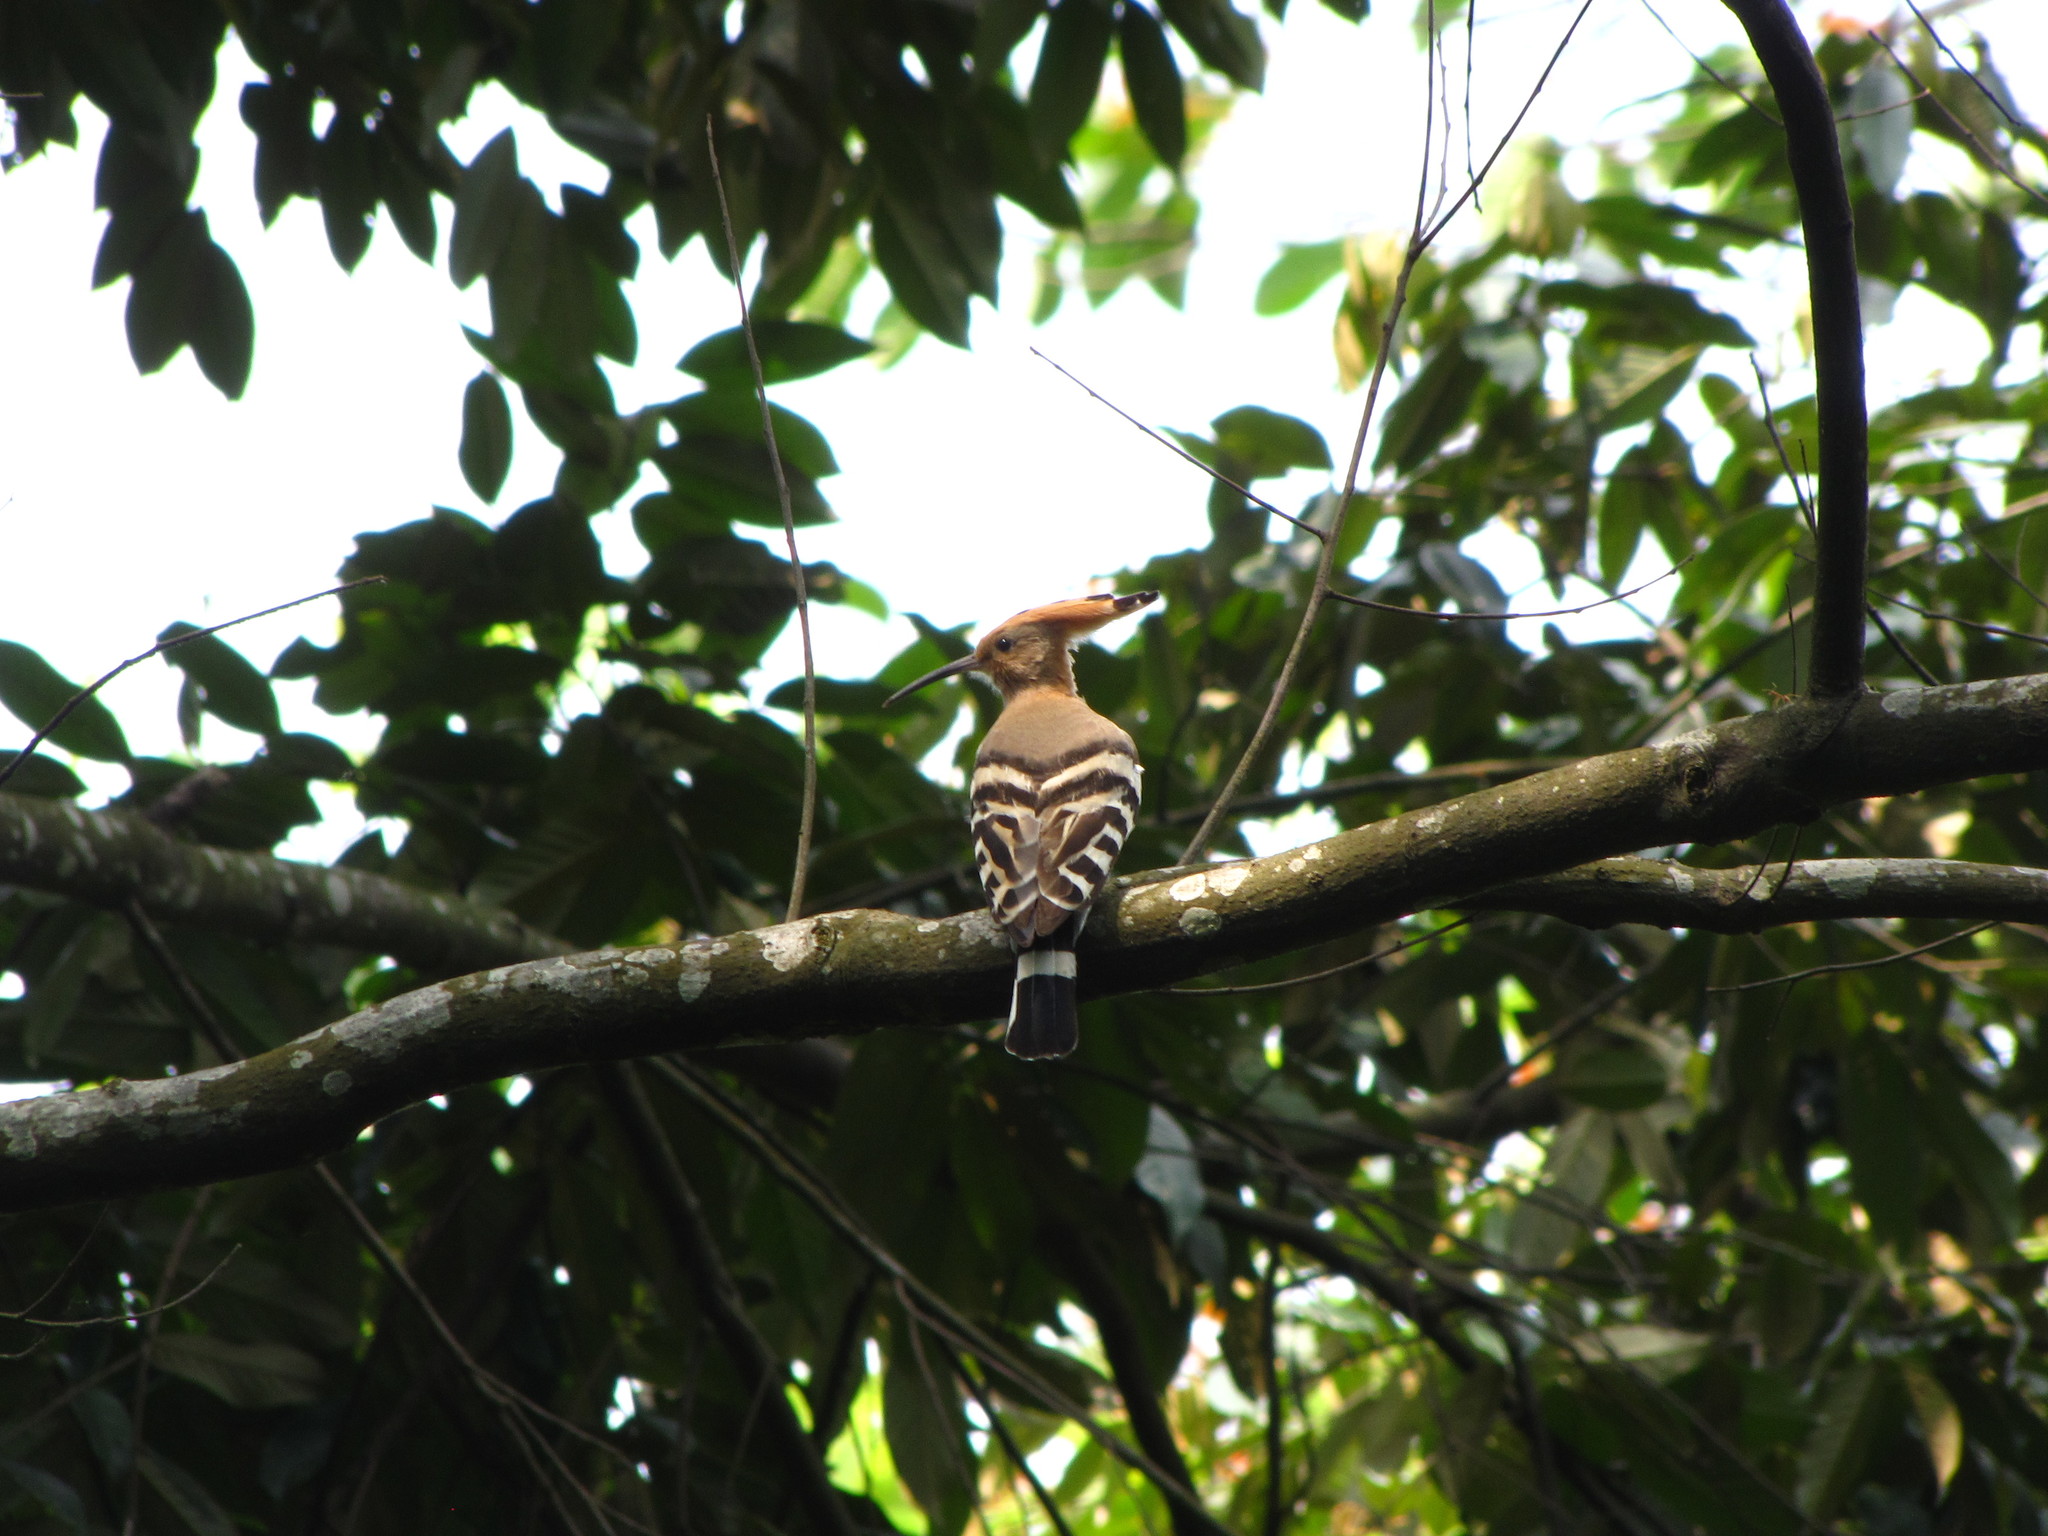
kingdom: Animalia
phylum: Chordata
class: Aves
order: Bucerotiformes
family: Upupidae
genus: Upupa
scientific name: Upupa epops
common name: Eurasian hoopoe
